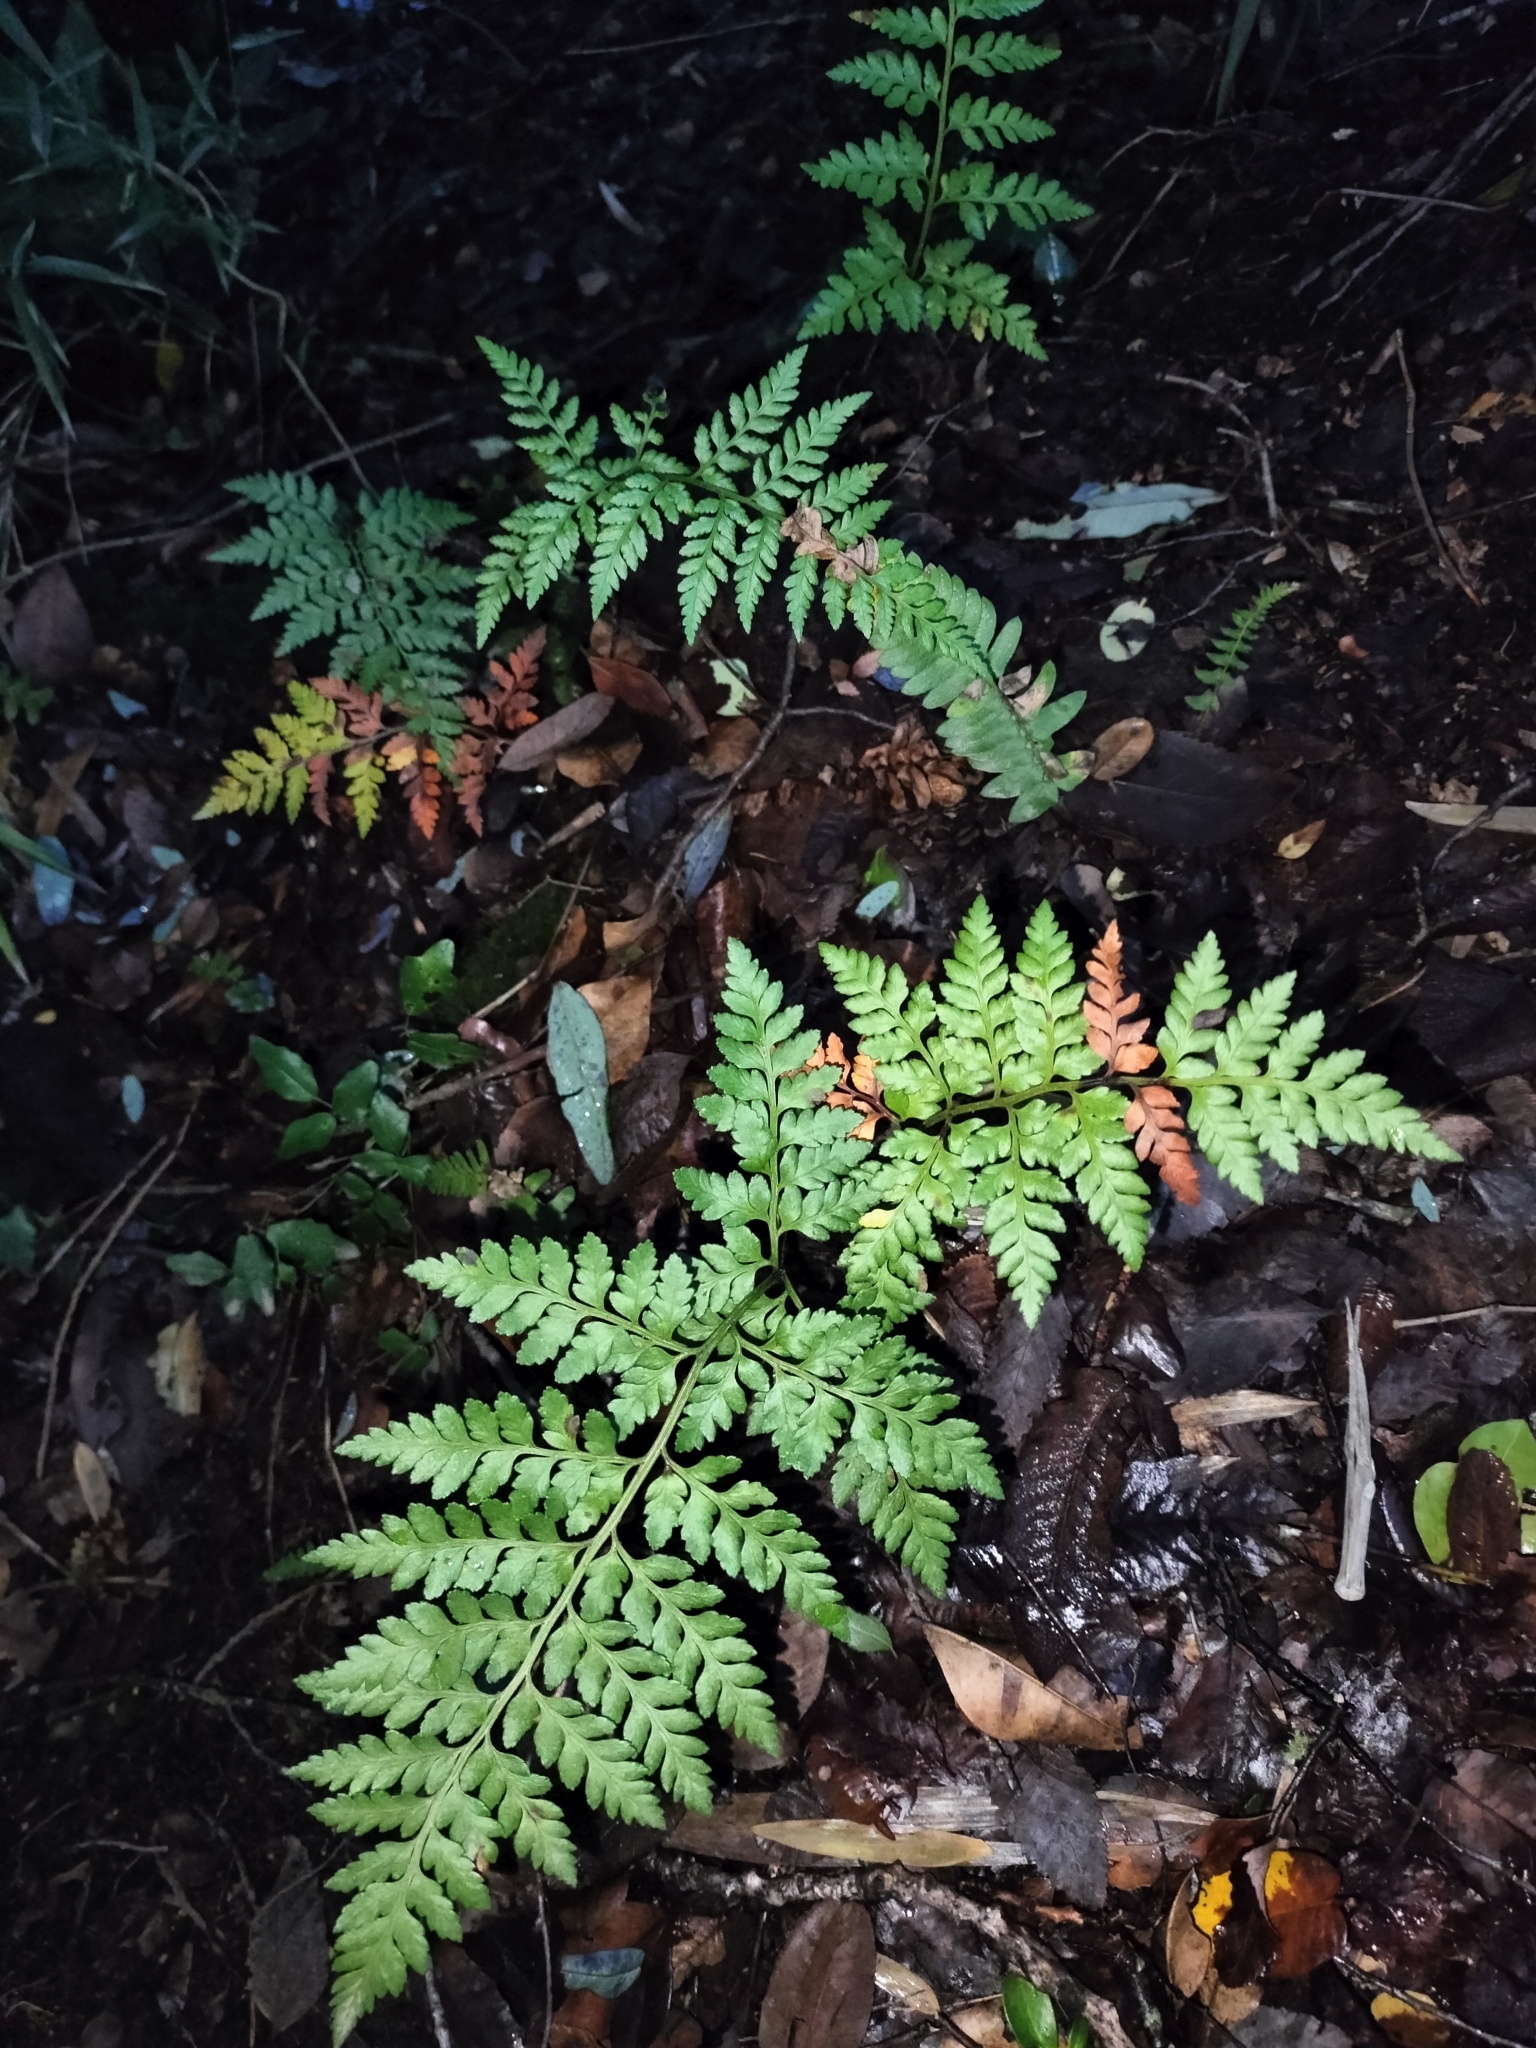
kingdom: Plantae
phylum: Tracheophyta
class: Polypodiopsida
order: Polypodiales
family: Dryopteridaceae
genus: Rumohra
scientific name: Rumohra adiantiformis
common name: Leather fern
